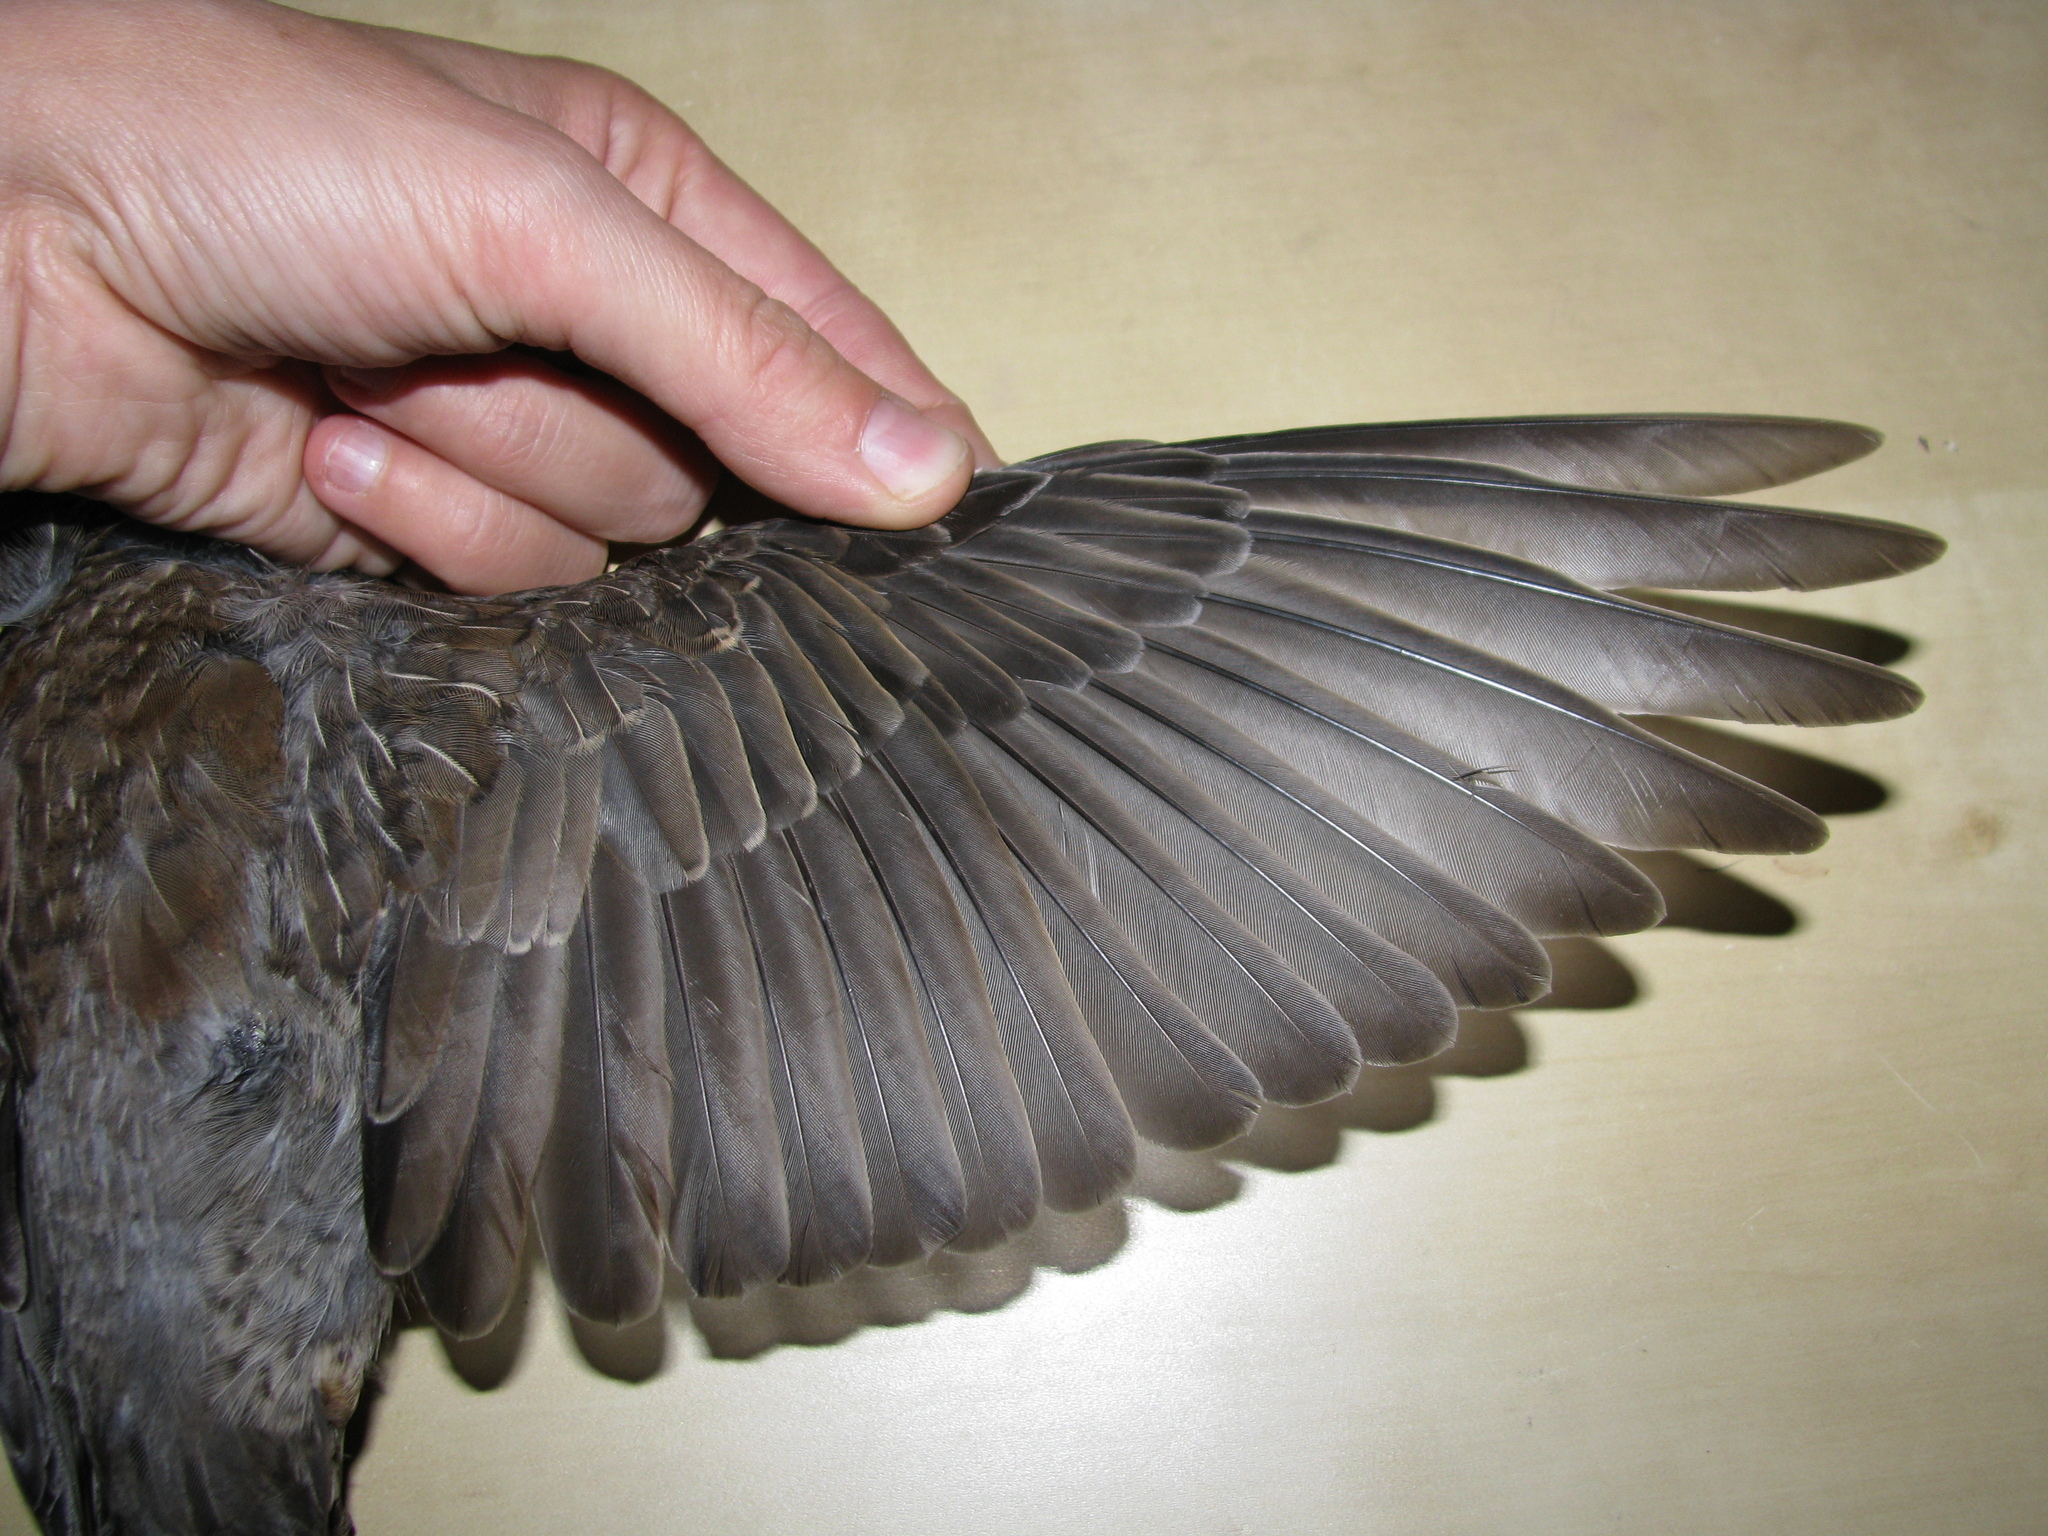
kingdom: Animalia
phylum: Chordata
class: Aves
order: Passeriformes
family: Turdidae
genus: Turdus
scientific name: Turdus pilaris
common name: Fieldfare
